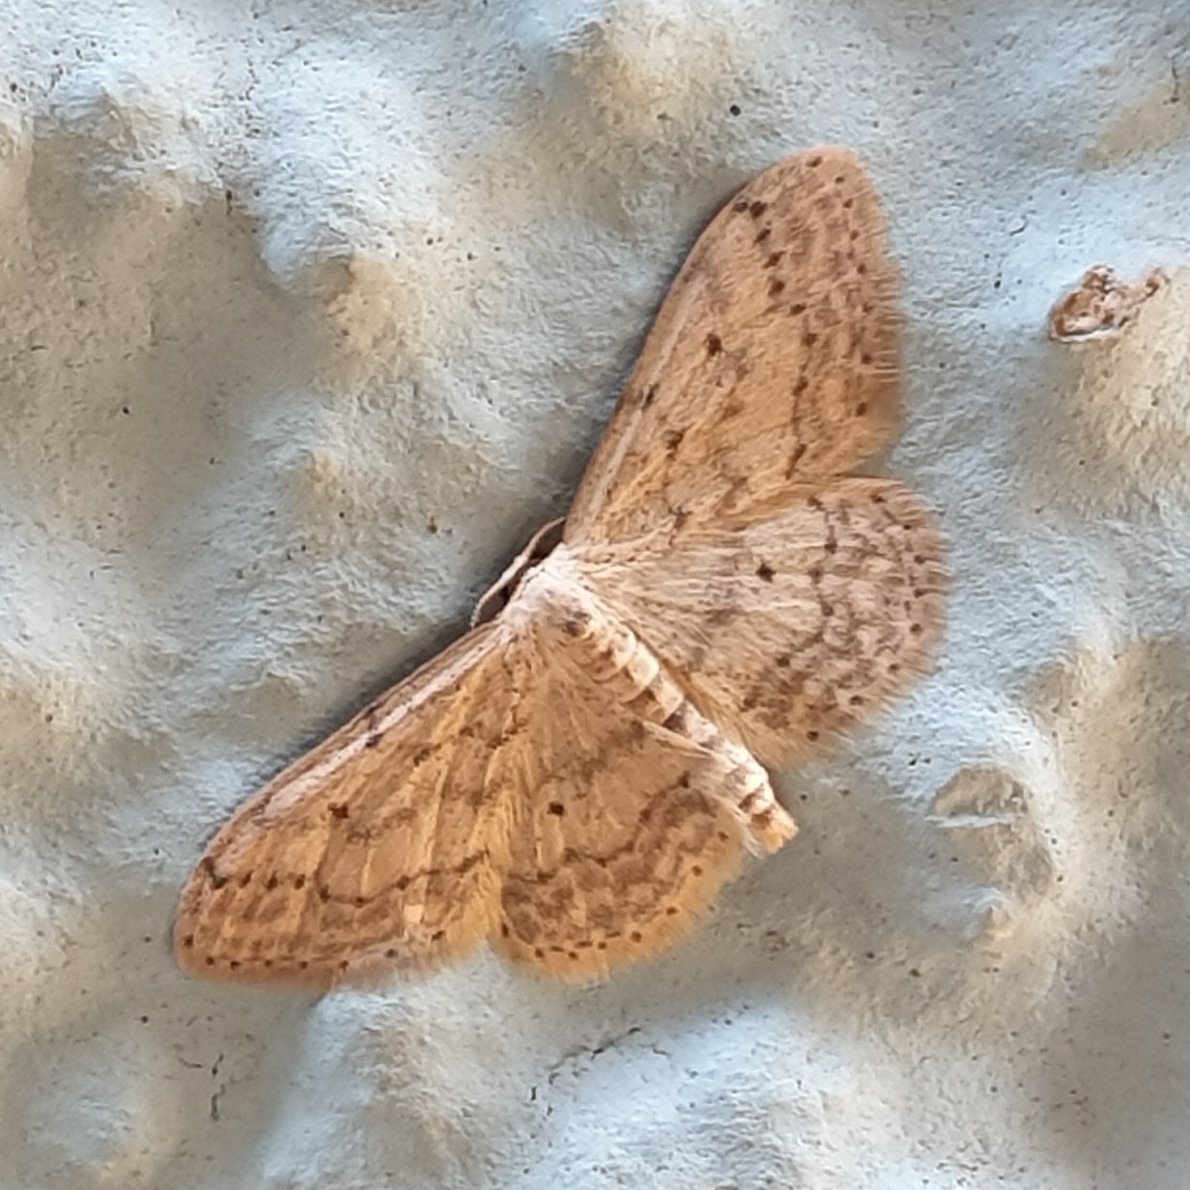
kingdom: Animalia
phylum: Arthropoda
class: Insecta
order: Lepidoptera
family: Geometridae
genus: Idaea
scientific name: Idaea seriata
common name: Small dusty wave
